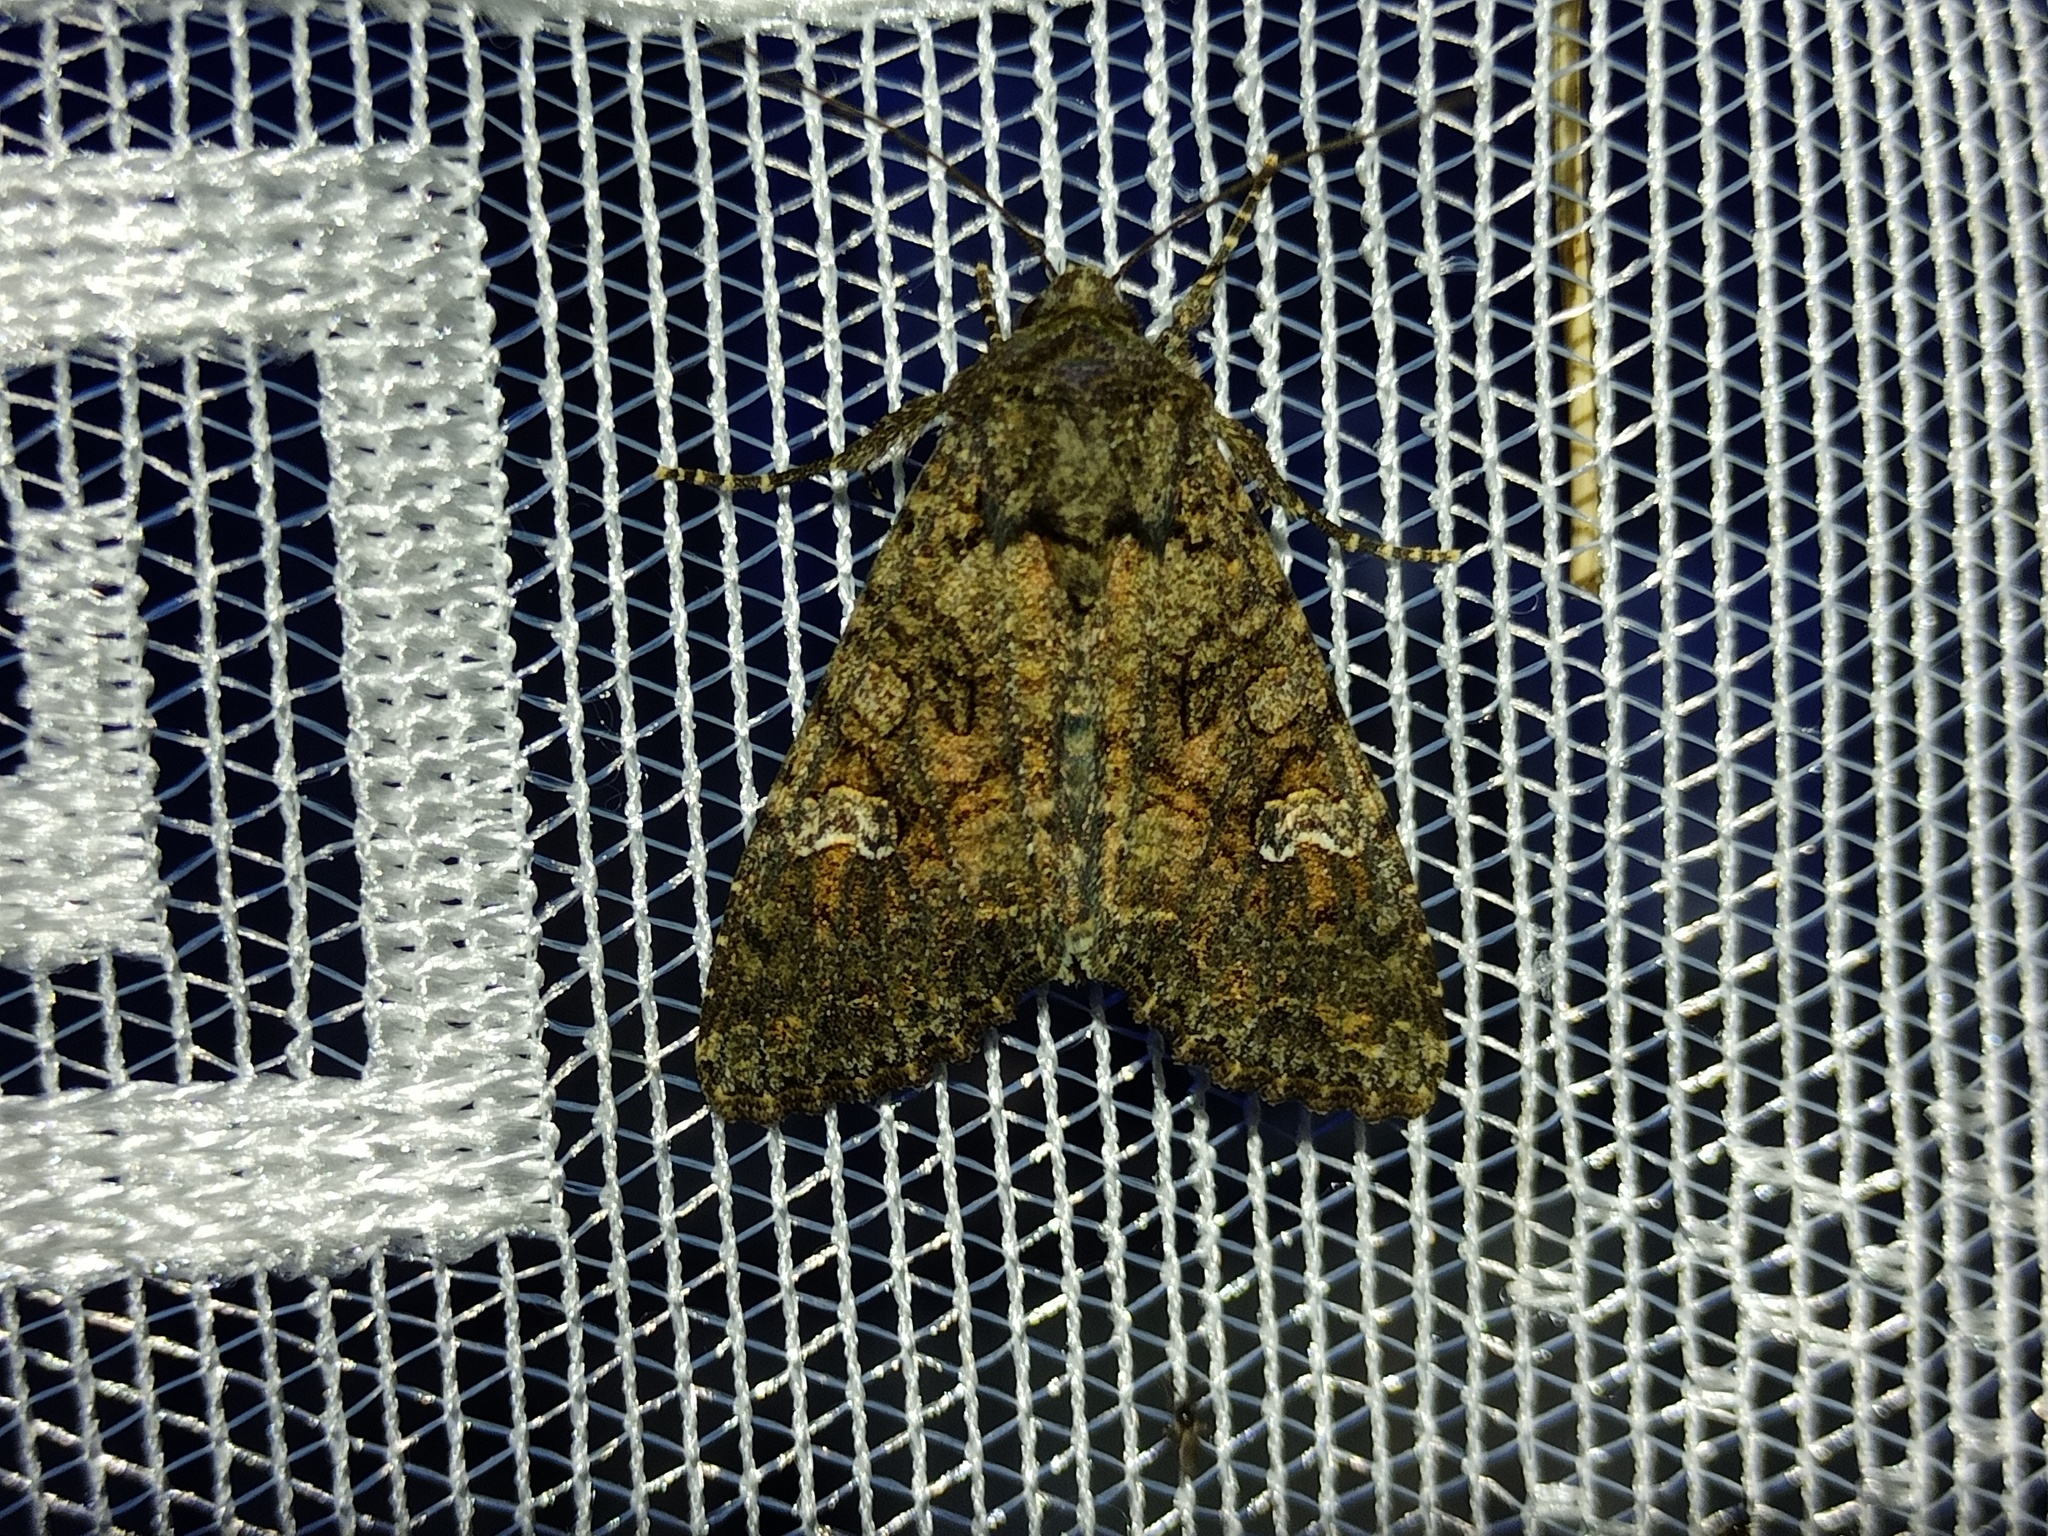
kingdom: Animalia
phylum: Arthropoda
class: Insecta
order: Lepidoptera
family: Noctuidae
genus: Mamestra
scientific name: Mamestra brassicae
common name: Cabbage moth
